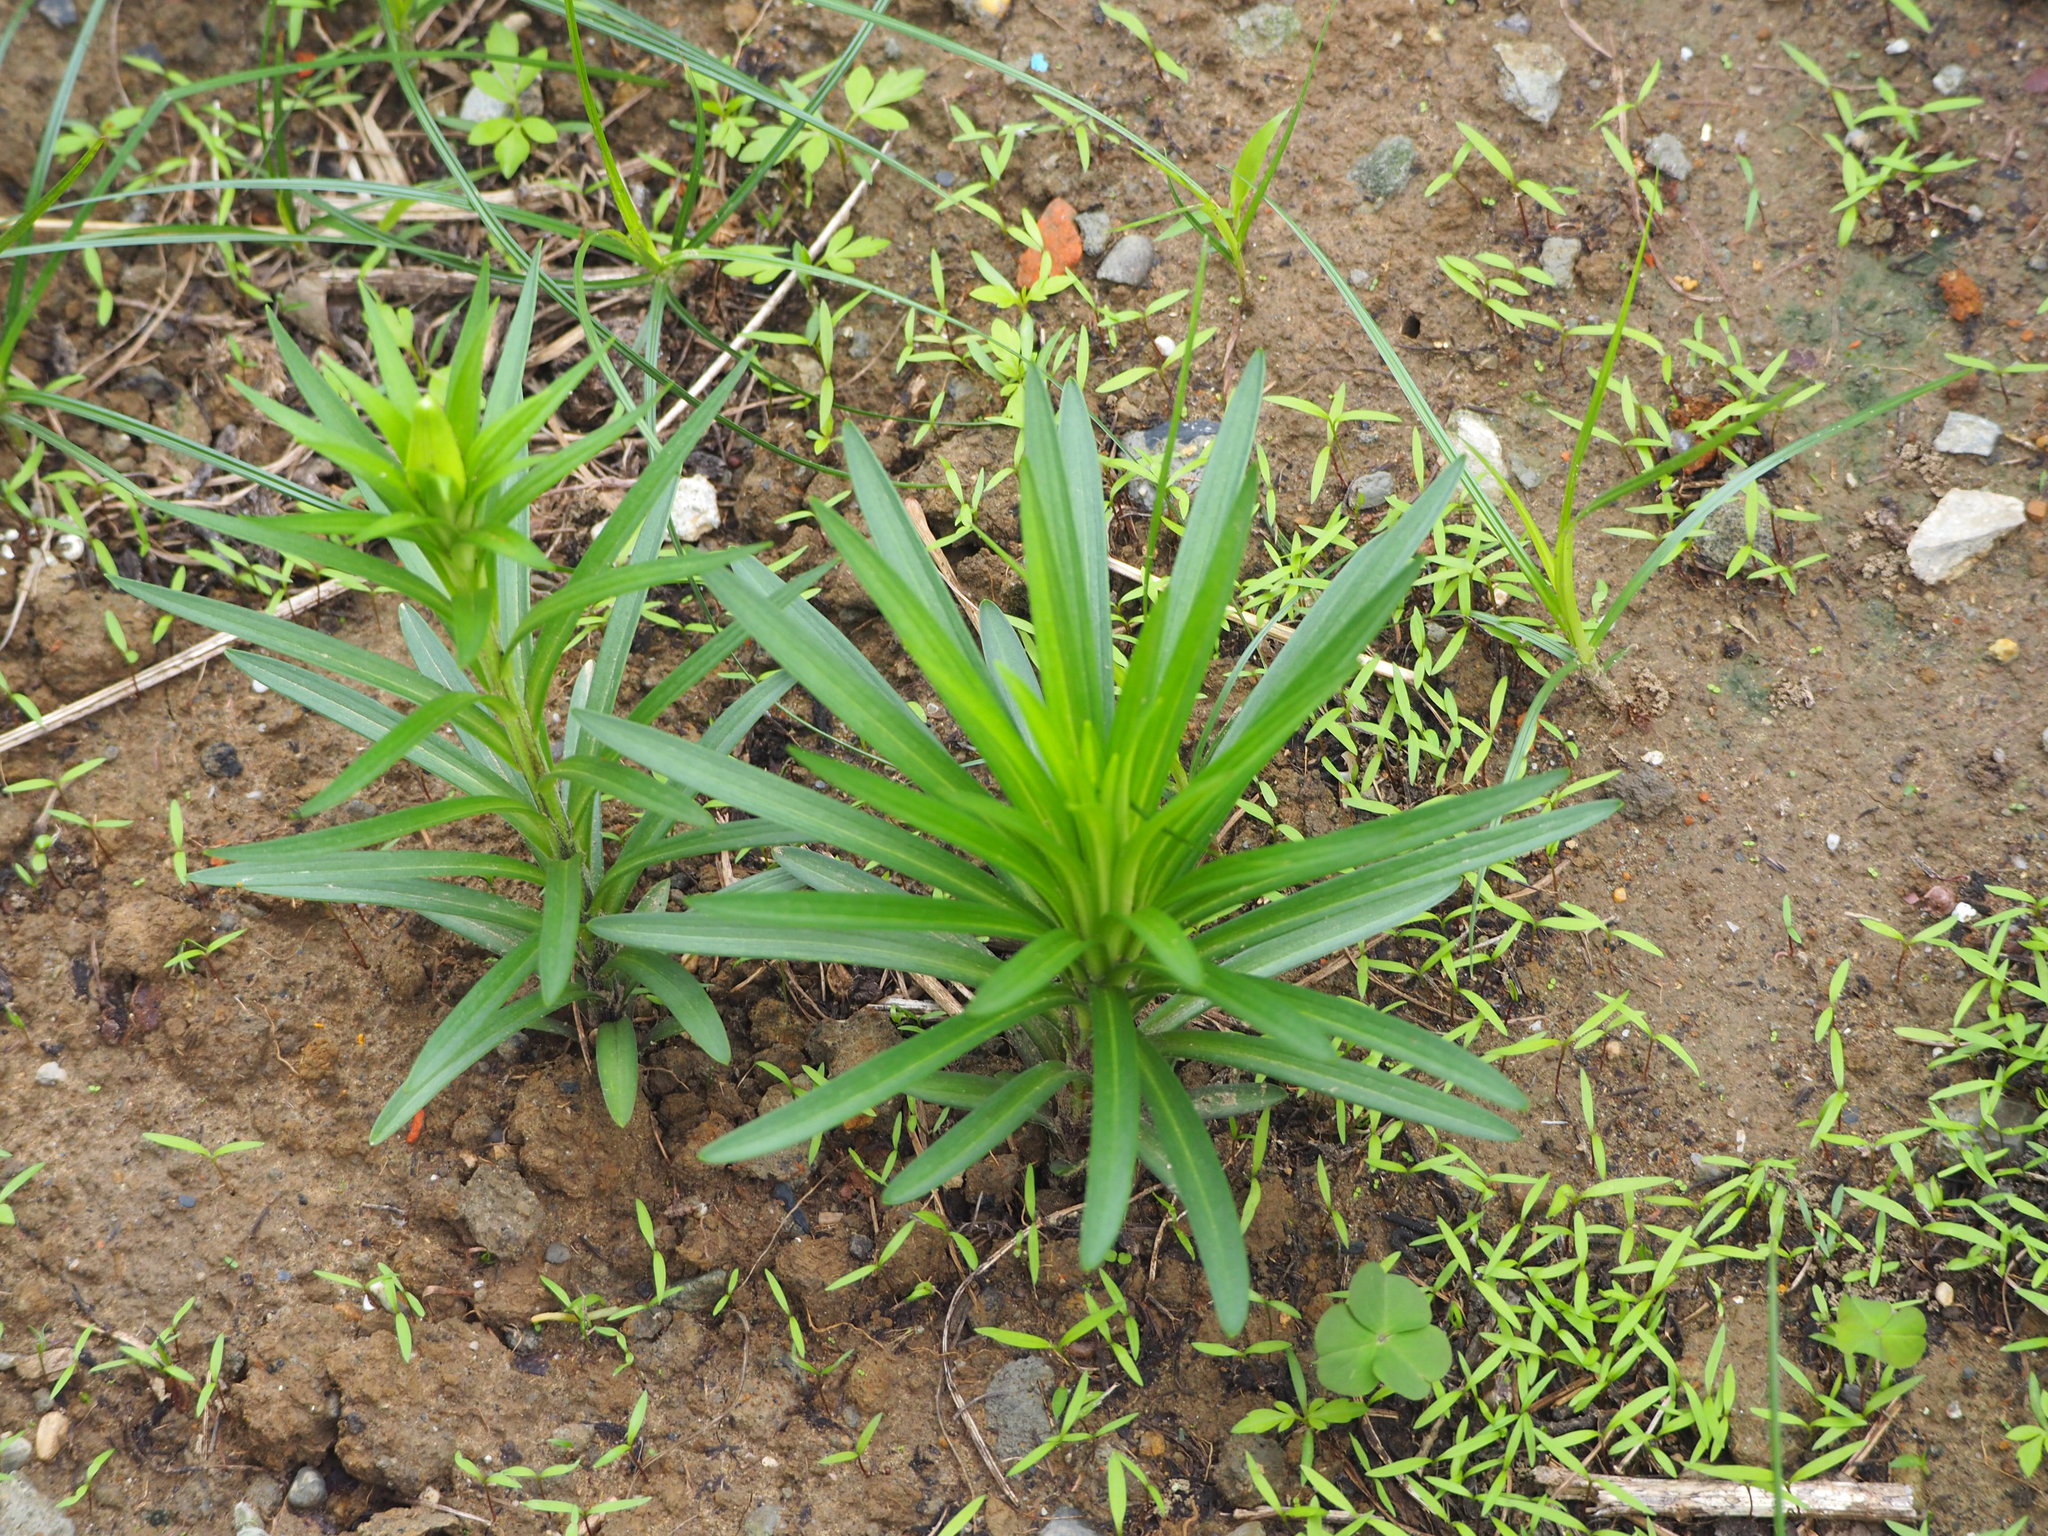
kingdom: Plantae
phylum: Tracheophyta
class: Liliopsida
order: Liliales
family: Liliaceae
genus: Lilium
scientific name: Lilium longiflorum
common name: Easter lily
